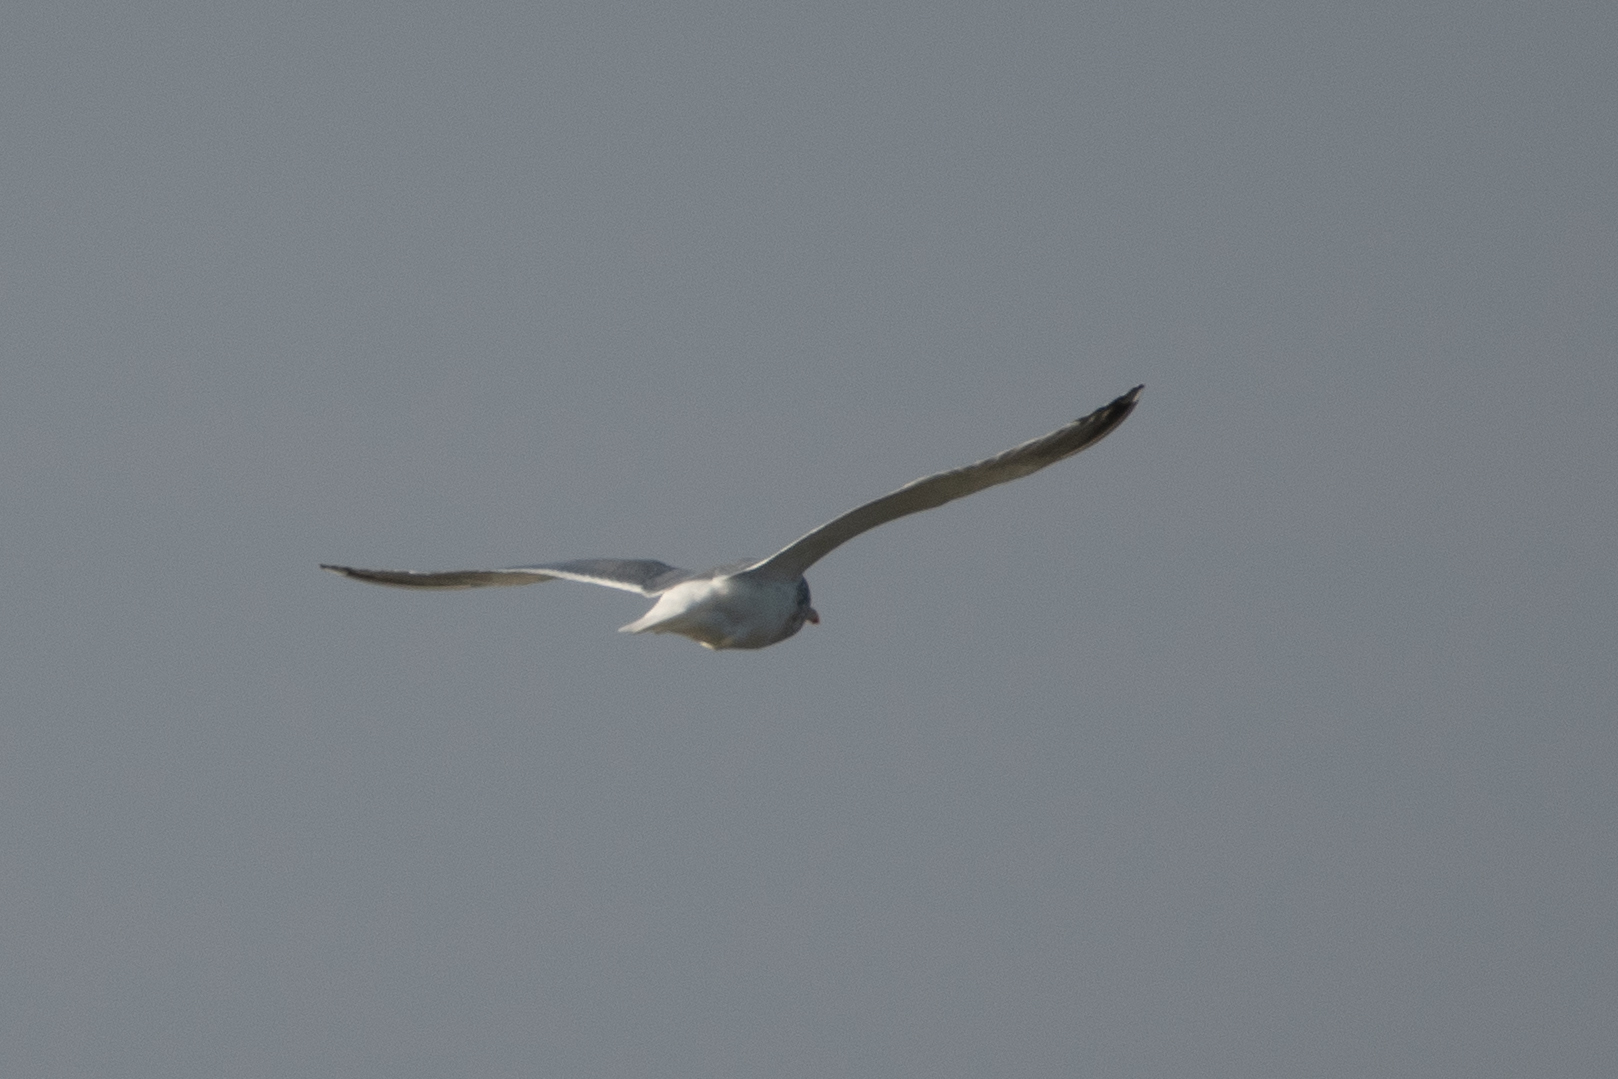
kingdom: Animalia
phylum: Chordata
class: Aves
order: Charadriiformes
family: Laridae
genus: Larus
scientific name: Larus
